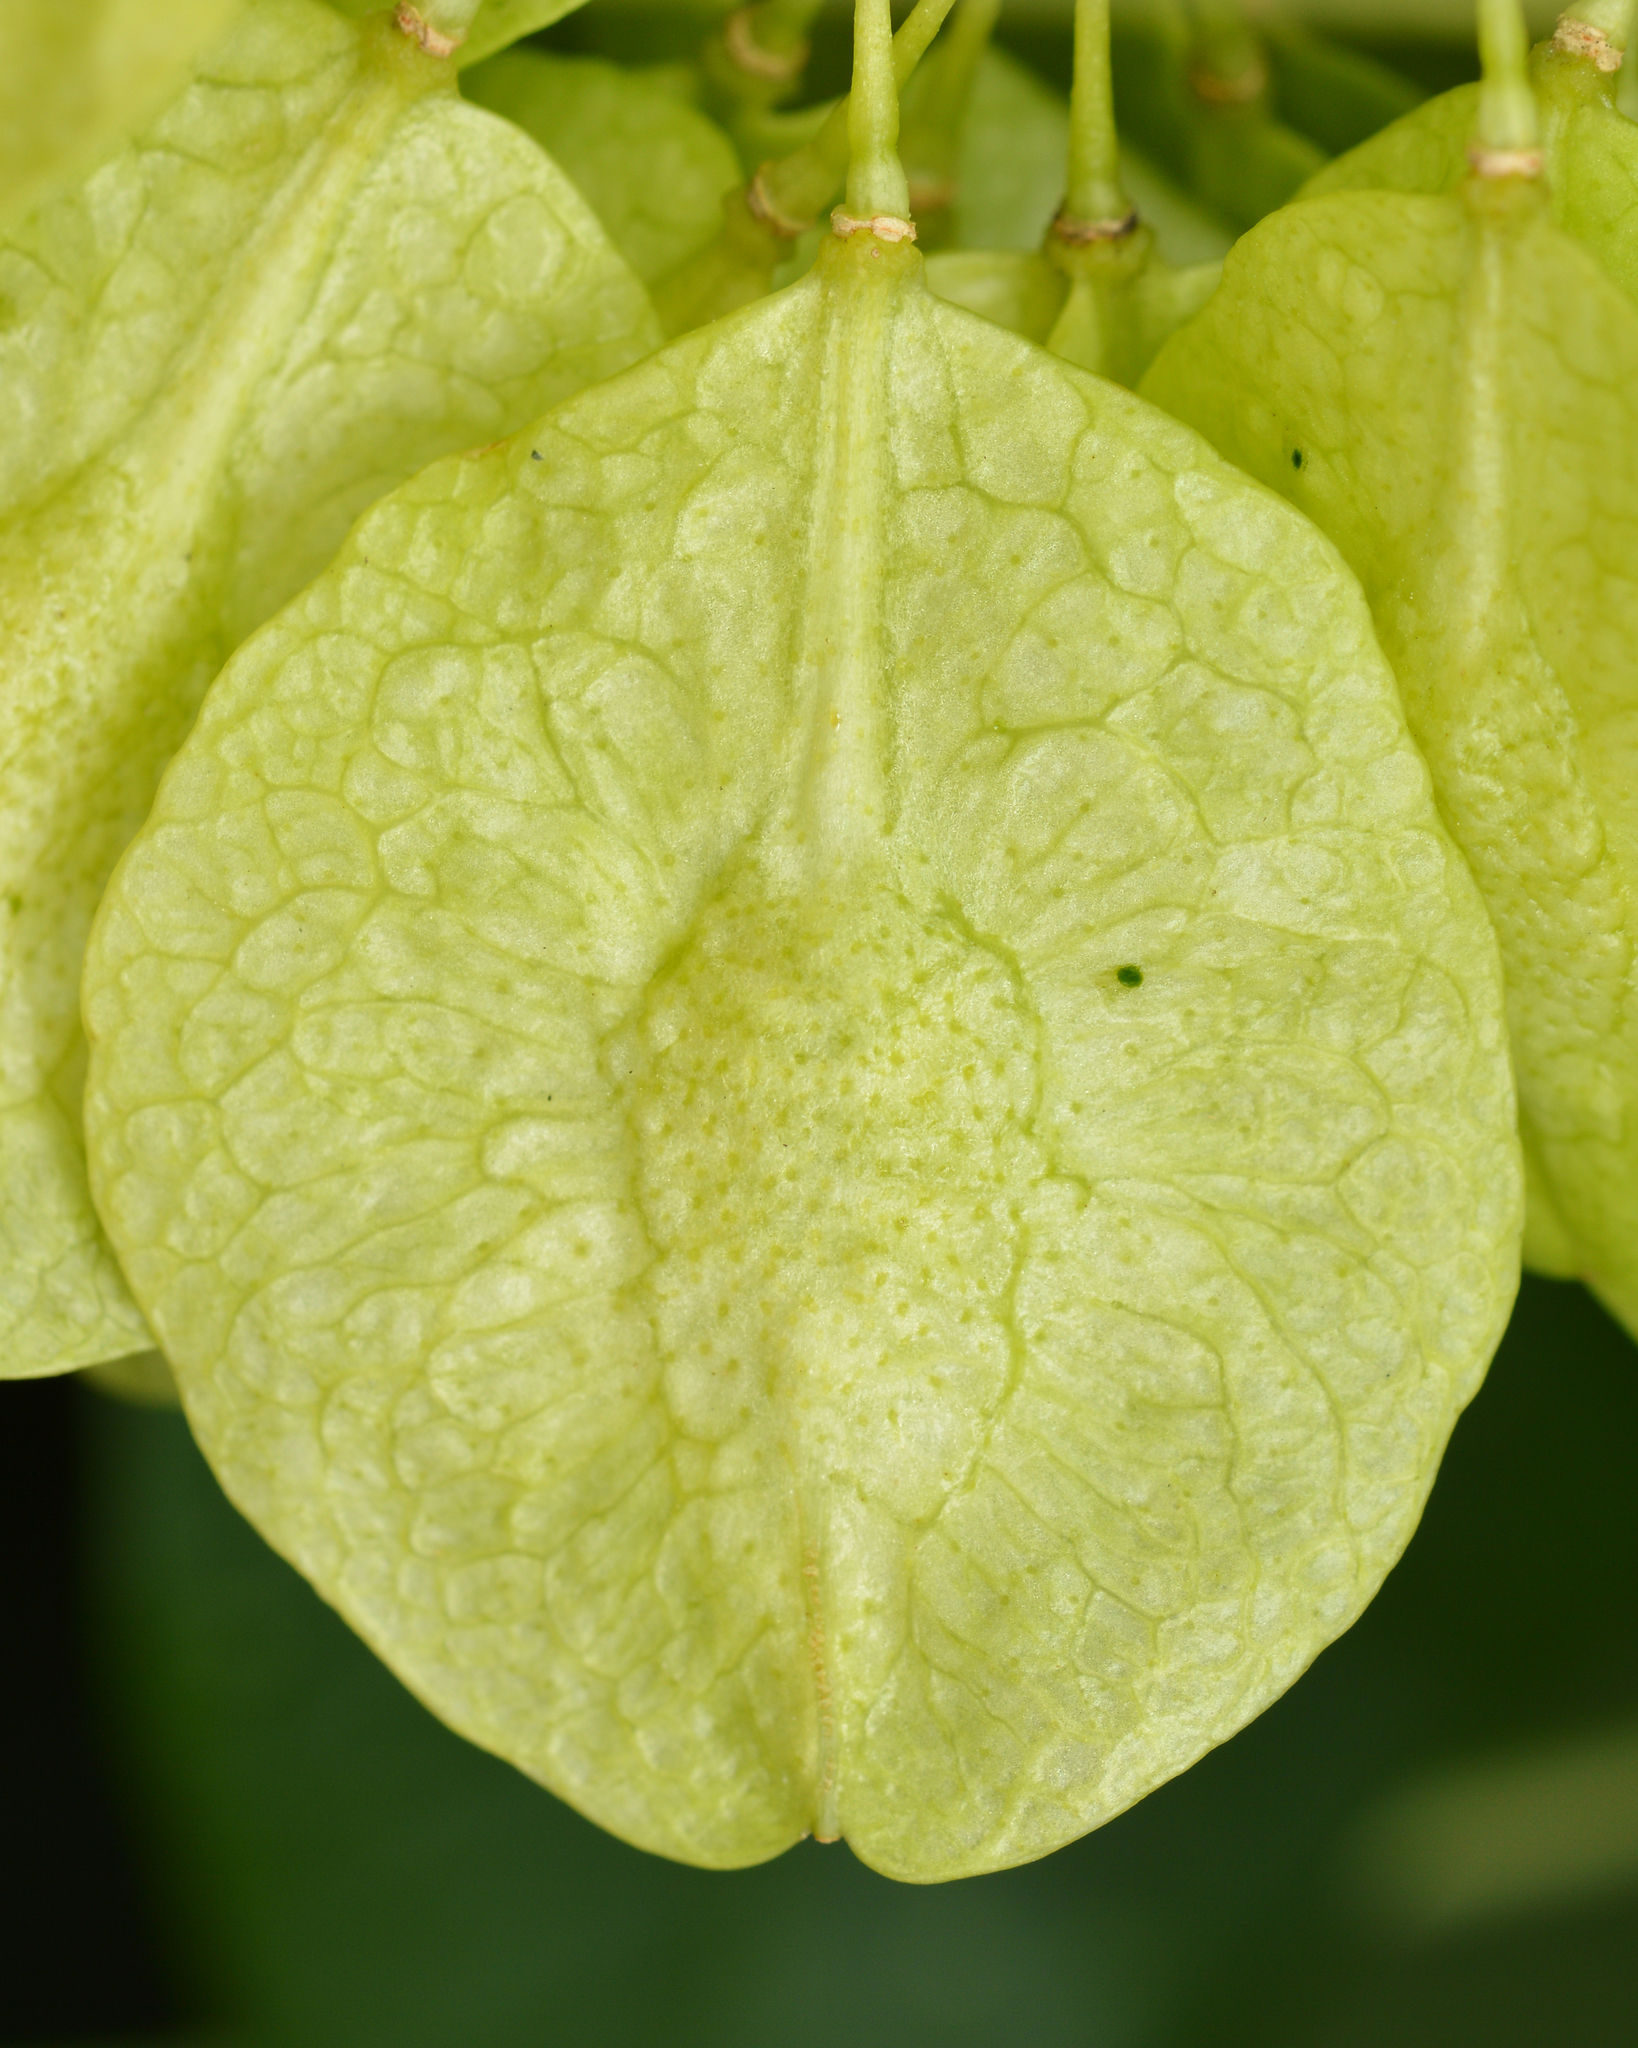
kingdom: Plantae
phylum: Tracheophyta
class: Magnoliopsida
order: Sapindales
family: Rutaceae
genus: Ptelea
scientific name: Ptelea trifoliata
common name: Common hop-tree
